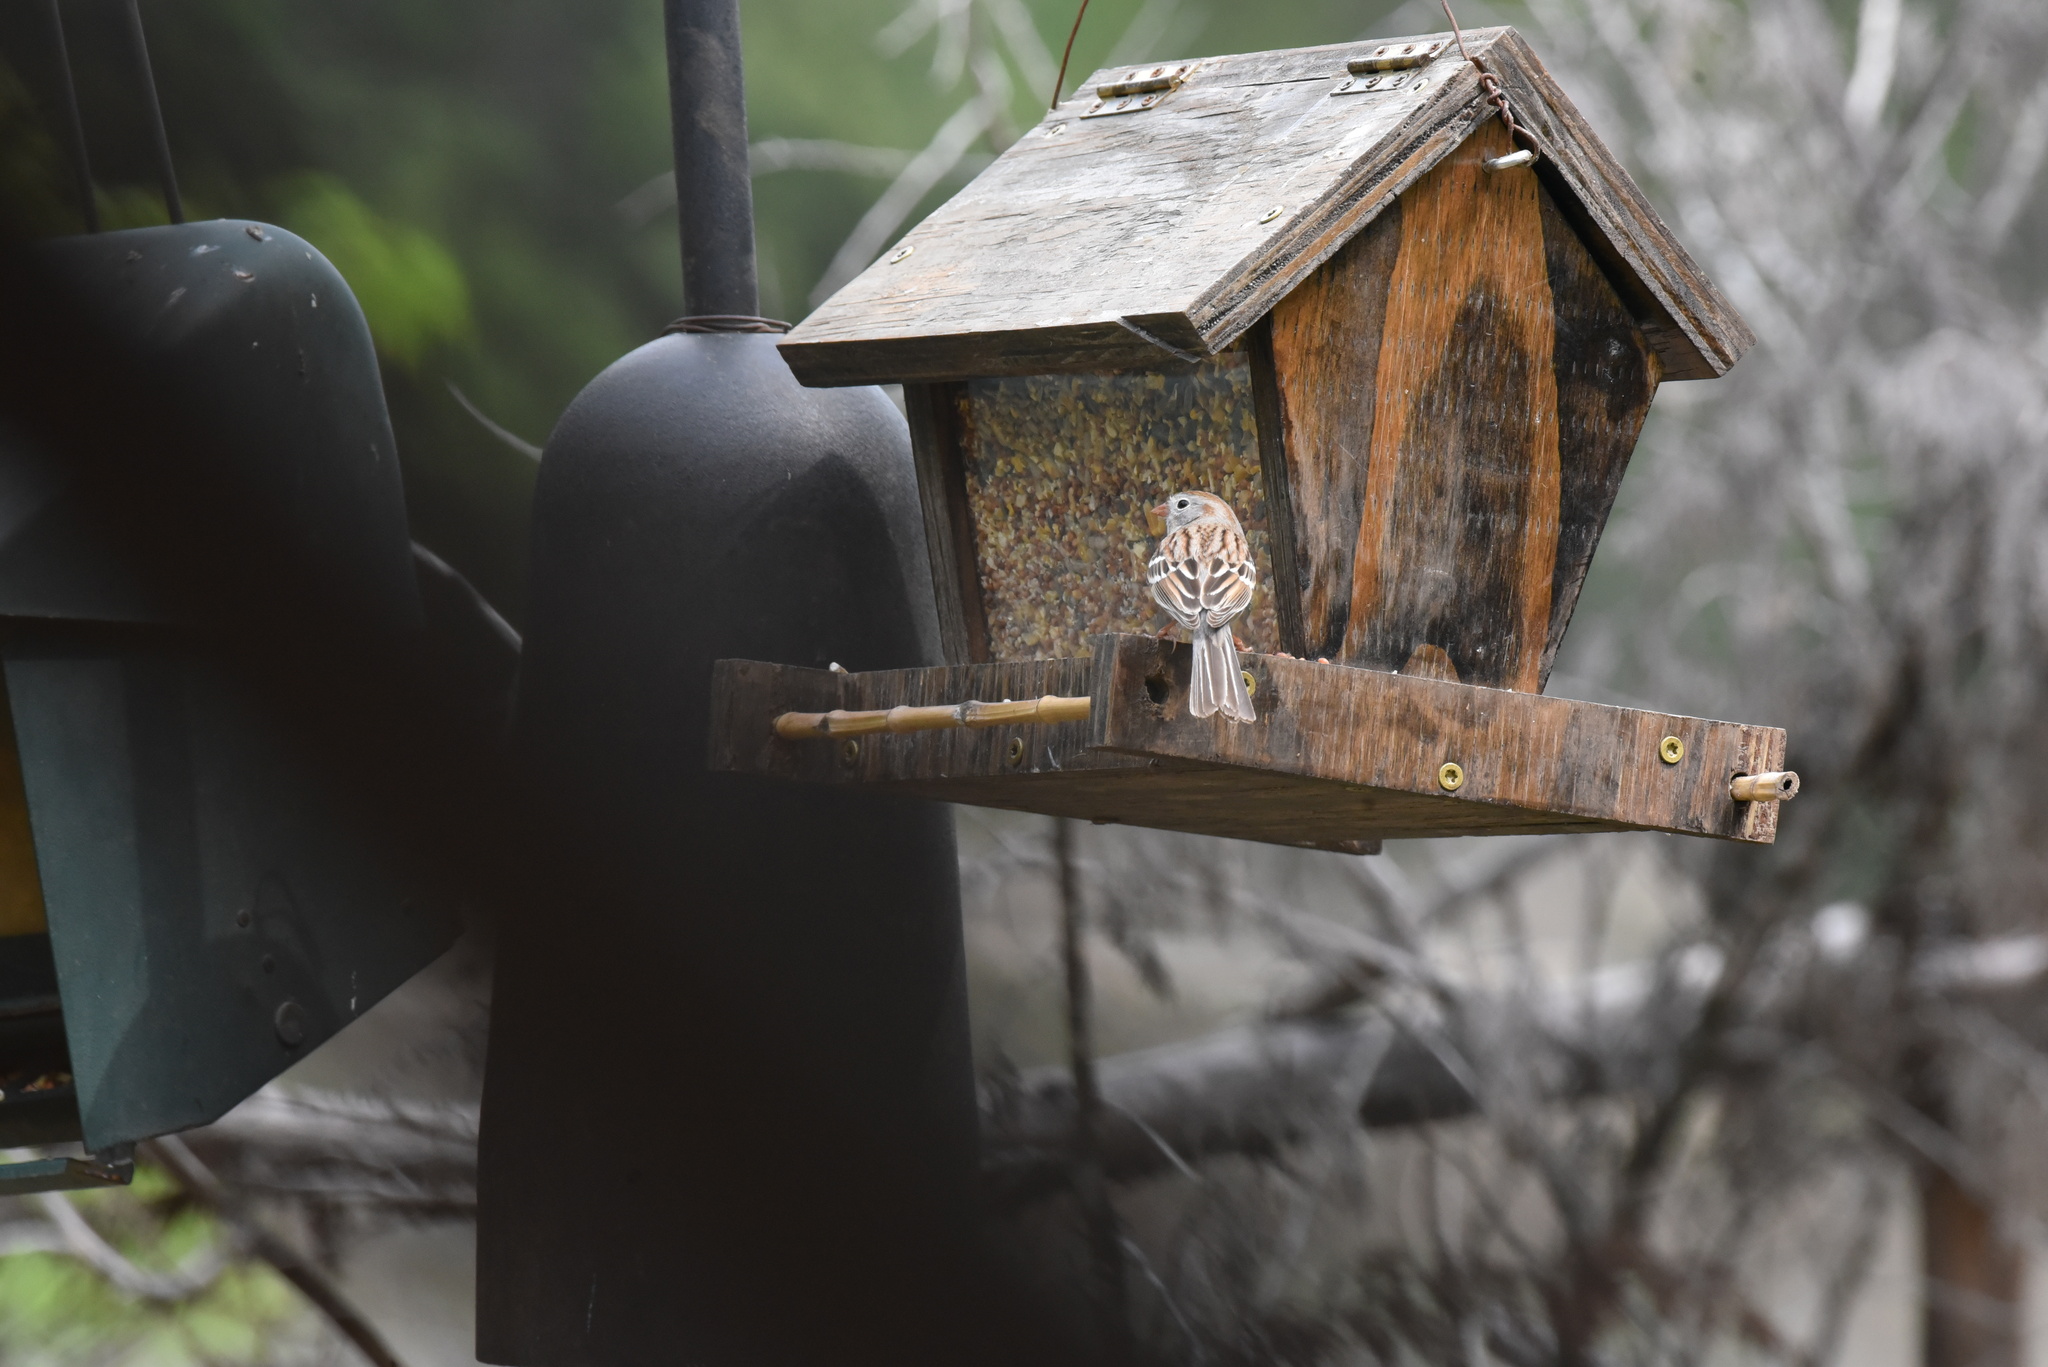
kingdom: Animalia
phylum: Chordata
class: Aves
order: Passeriformes
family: Passerellidae
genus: Spizella
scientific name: Spizella pusilla
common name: Field sparrow
